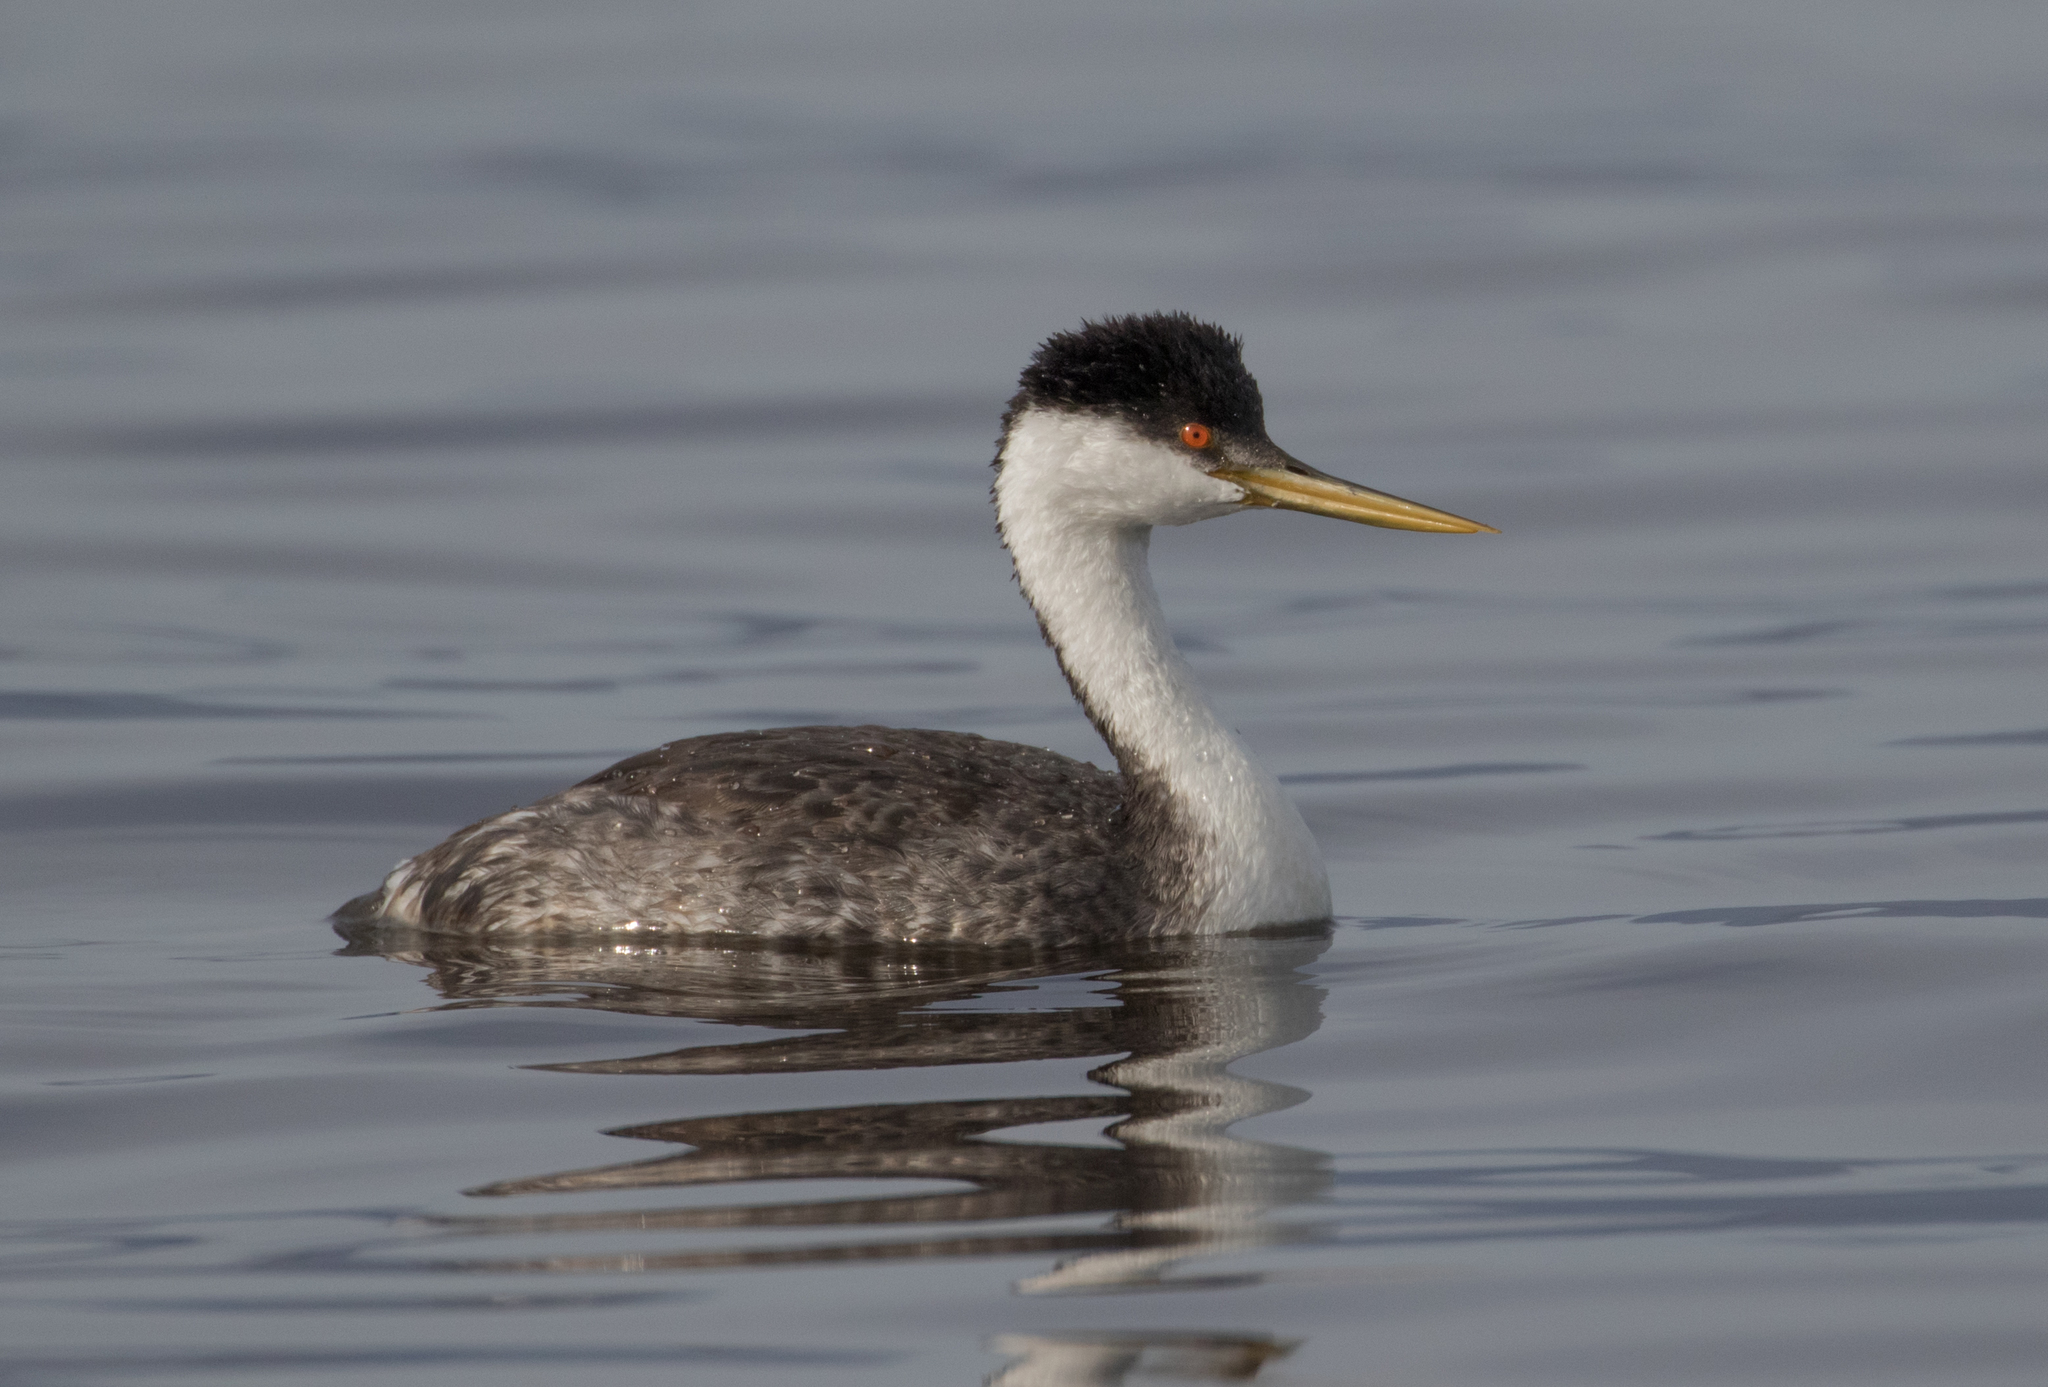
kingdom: Animalia
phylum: Chordata
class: Aves
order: Podicipediformes
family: Podicipedidae
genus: Aechmophorus
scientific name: Aechmophorus occidentalis
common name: Western grebe
